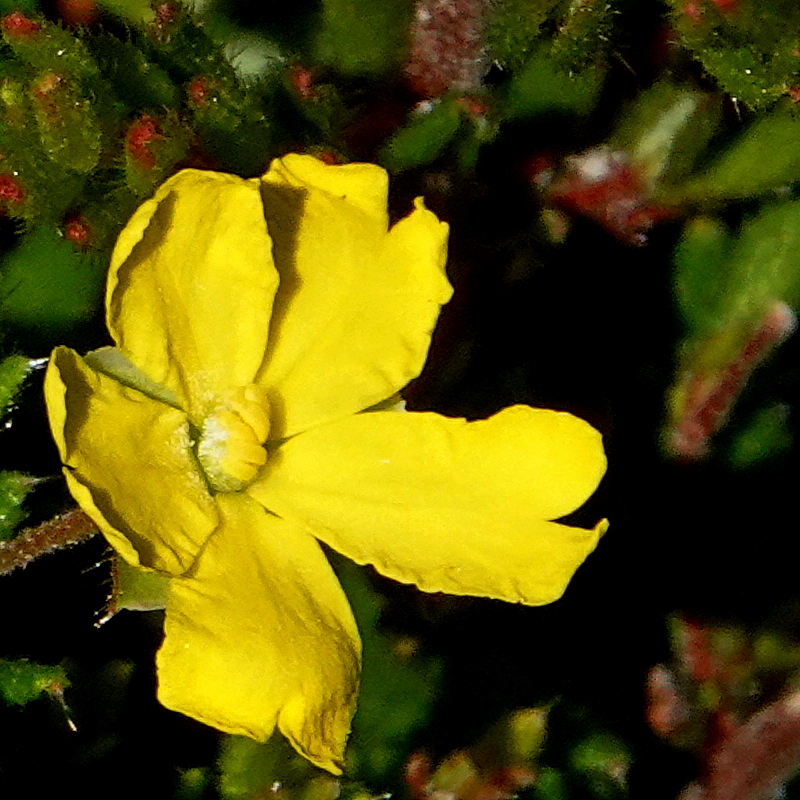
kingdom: Plantae
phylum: Tracheophyta
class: Magnoliopsida
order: Dilleniales
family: Dilleniaceae
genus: Hibbertia
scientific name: Hibbertia empetrifolia
